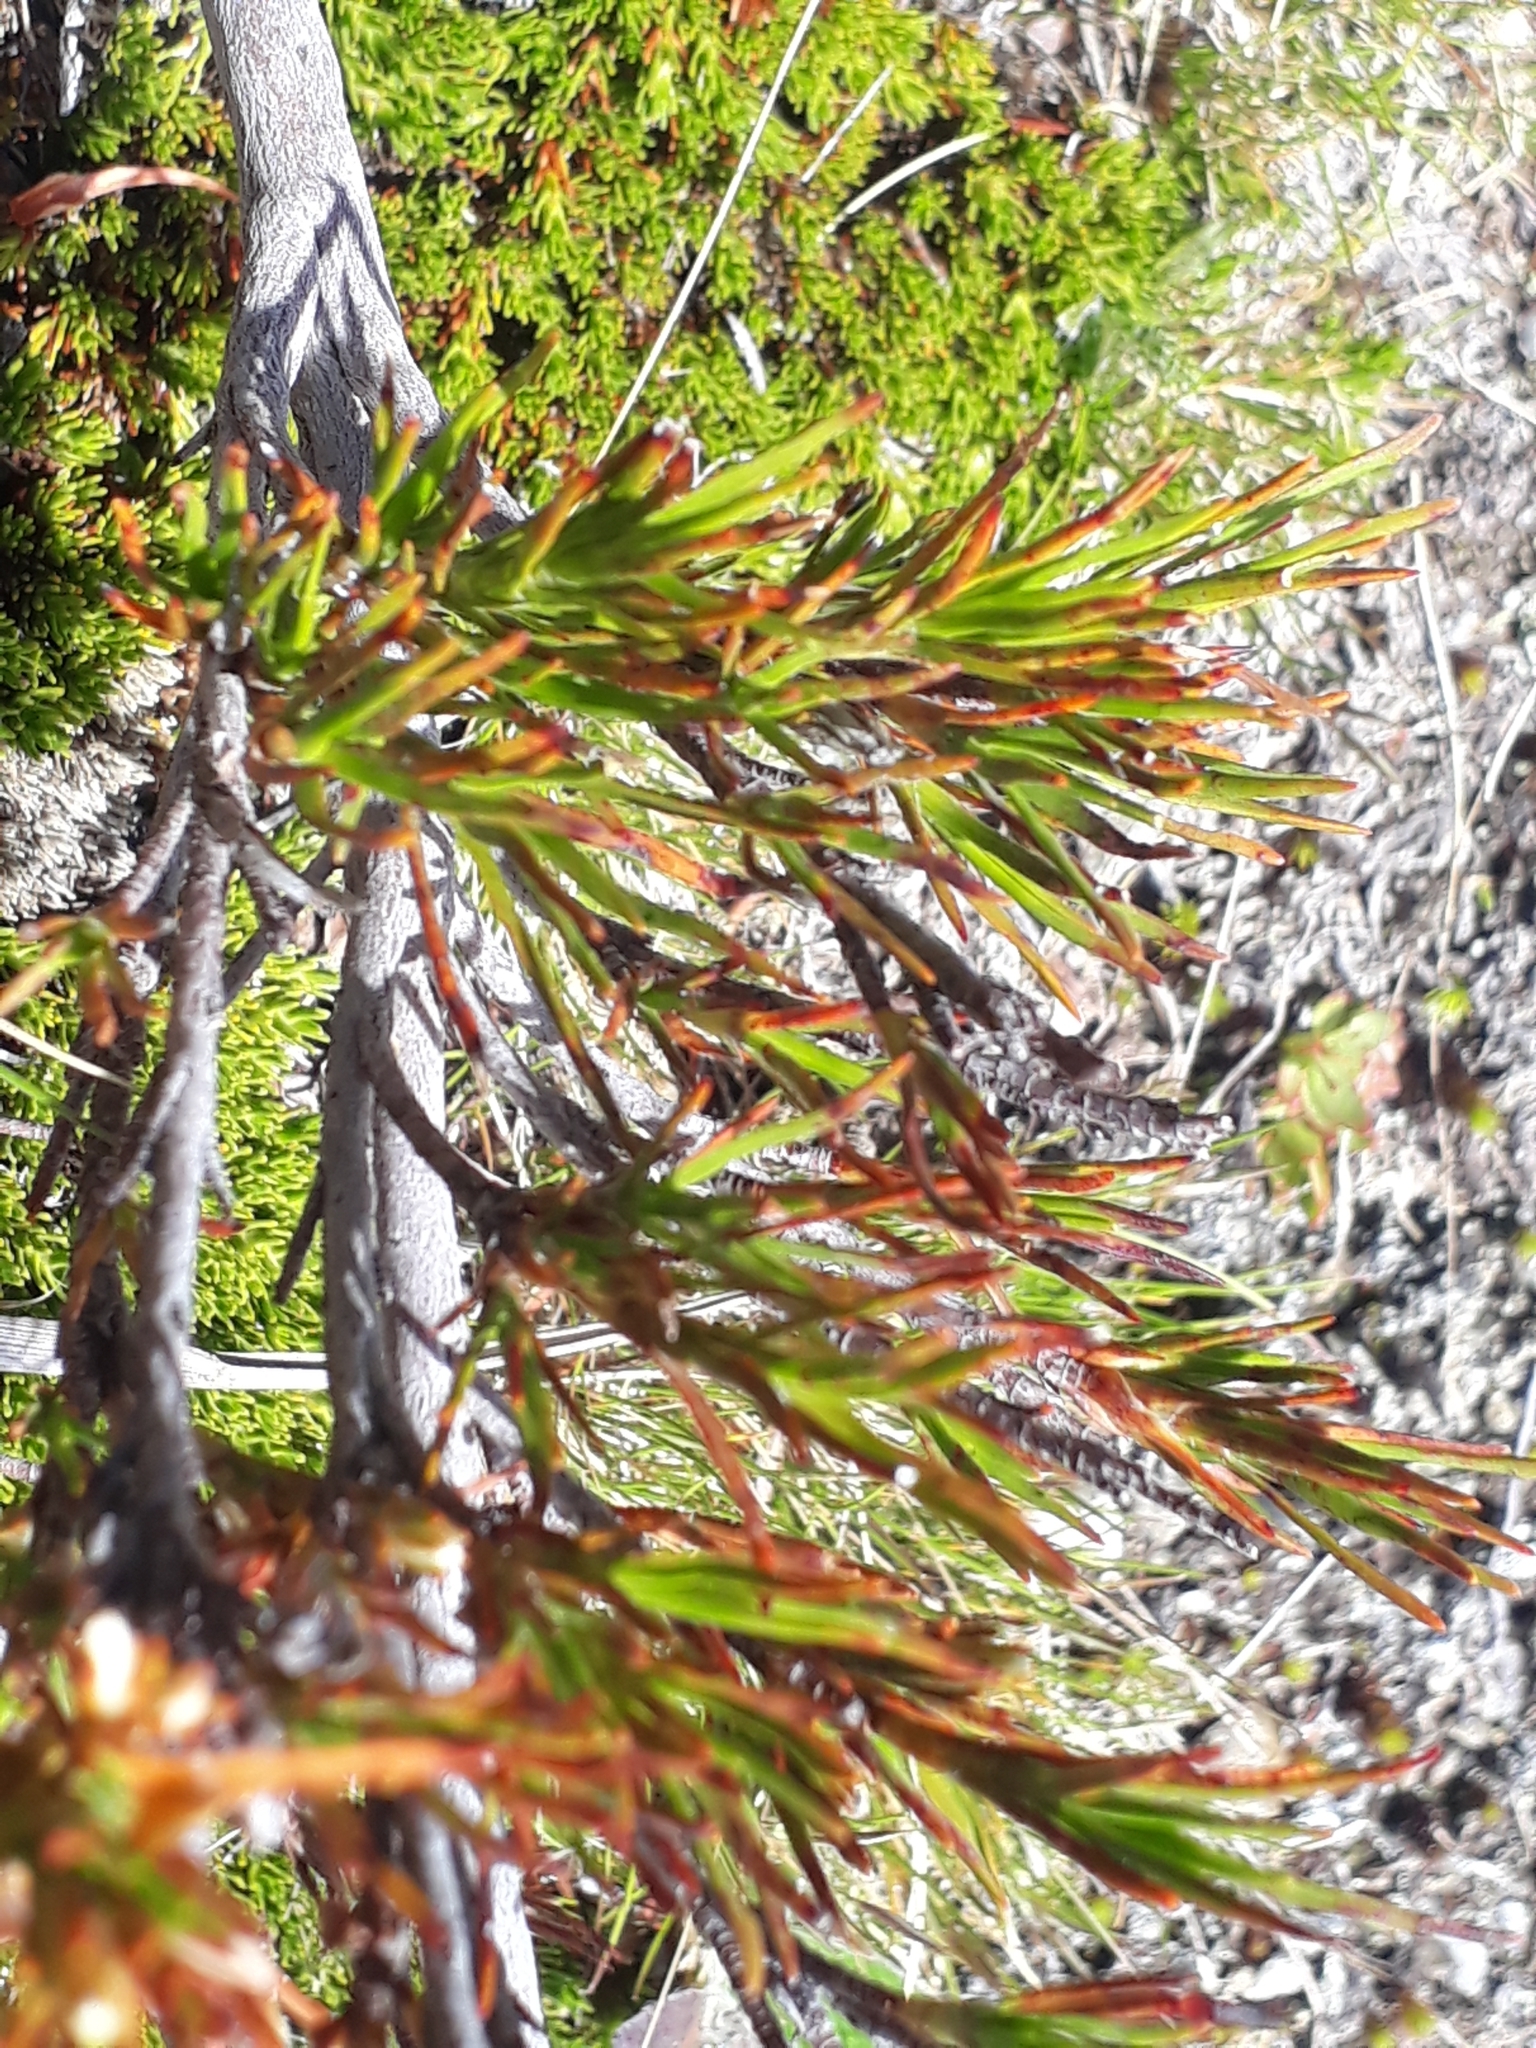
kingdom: Plantae
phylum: Tracheophyta
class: Magnoliopsida
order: Ericales
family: Ericaceae
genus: Dracophyllum
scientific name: Dracophyllum pronum
